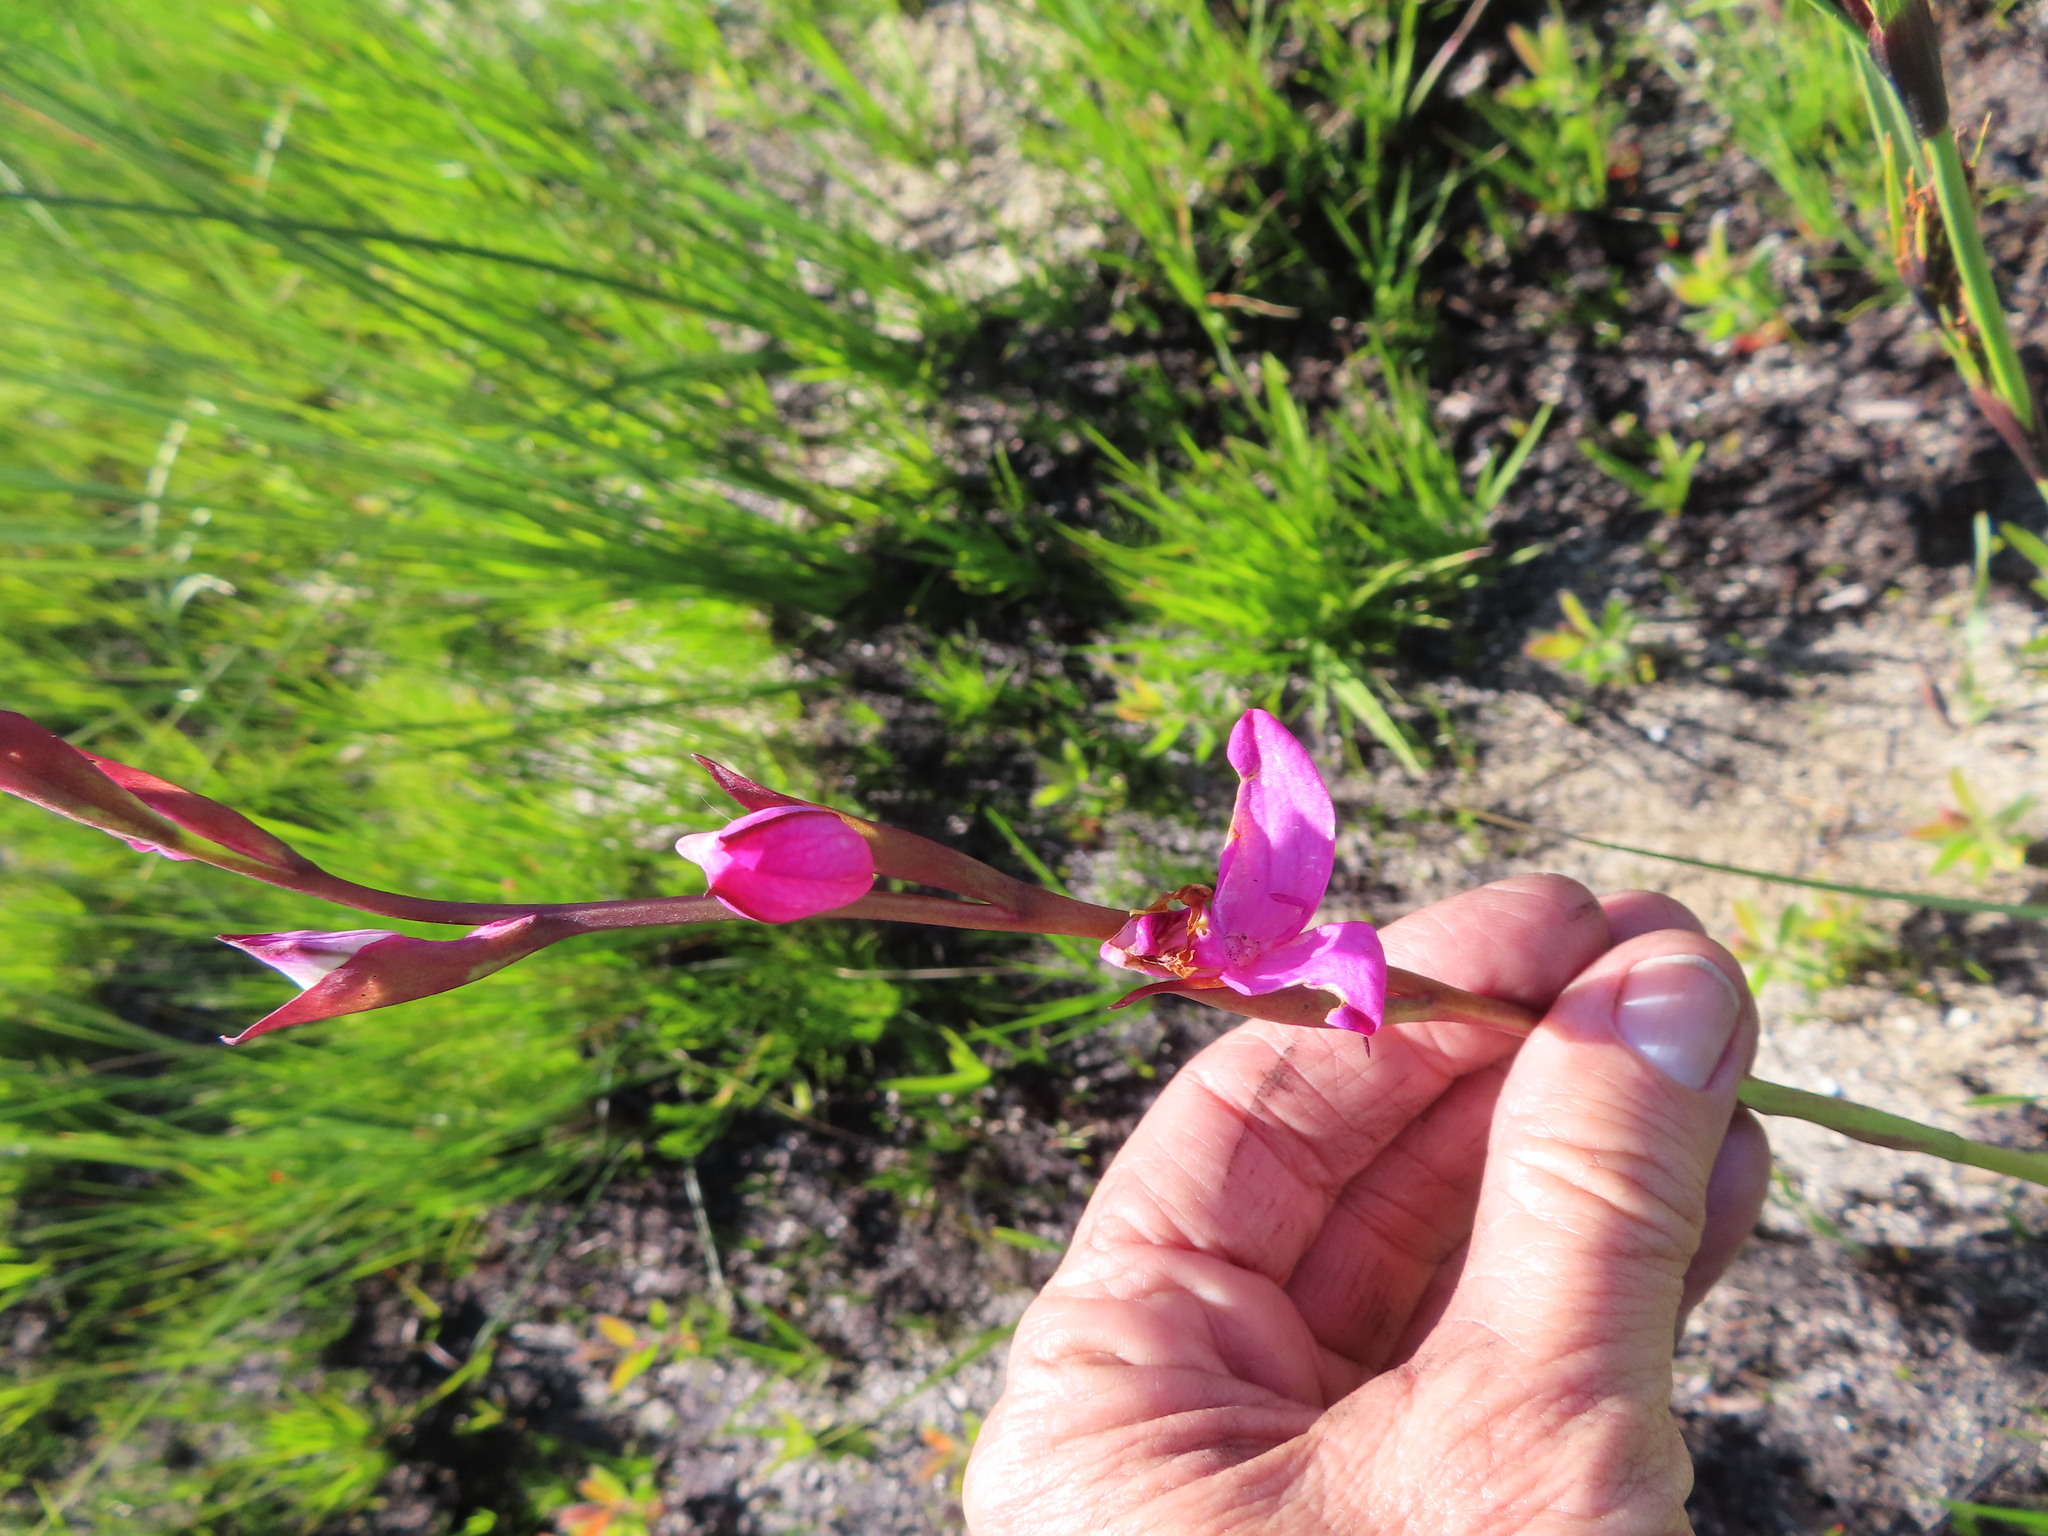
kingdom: Plantae
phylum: Tracheophyta
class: Liliopsida
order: Asparagales
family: Orchidaceae
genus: Disa
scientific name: Disa racemosa
